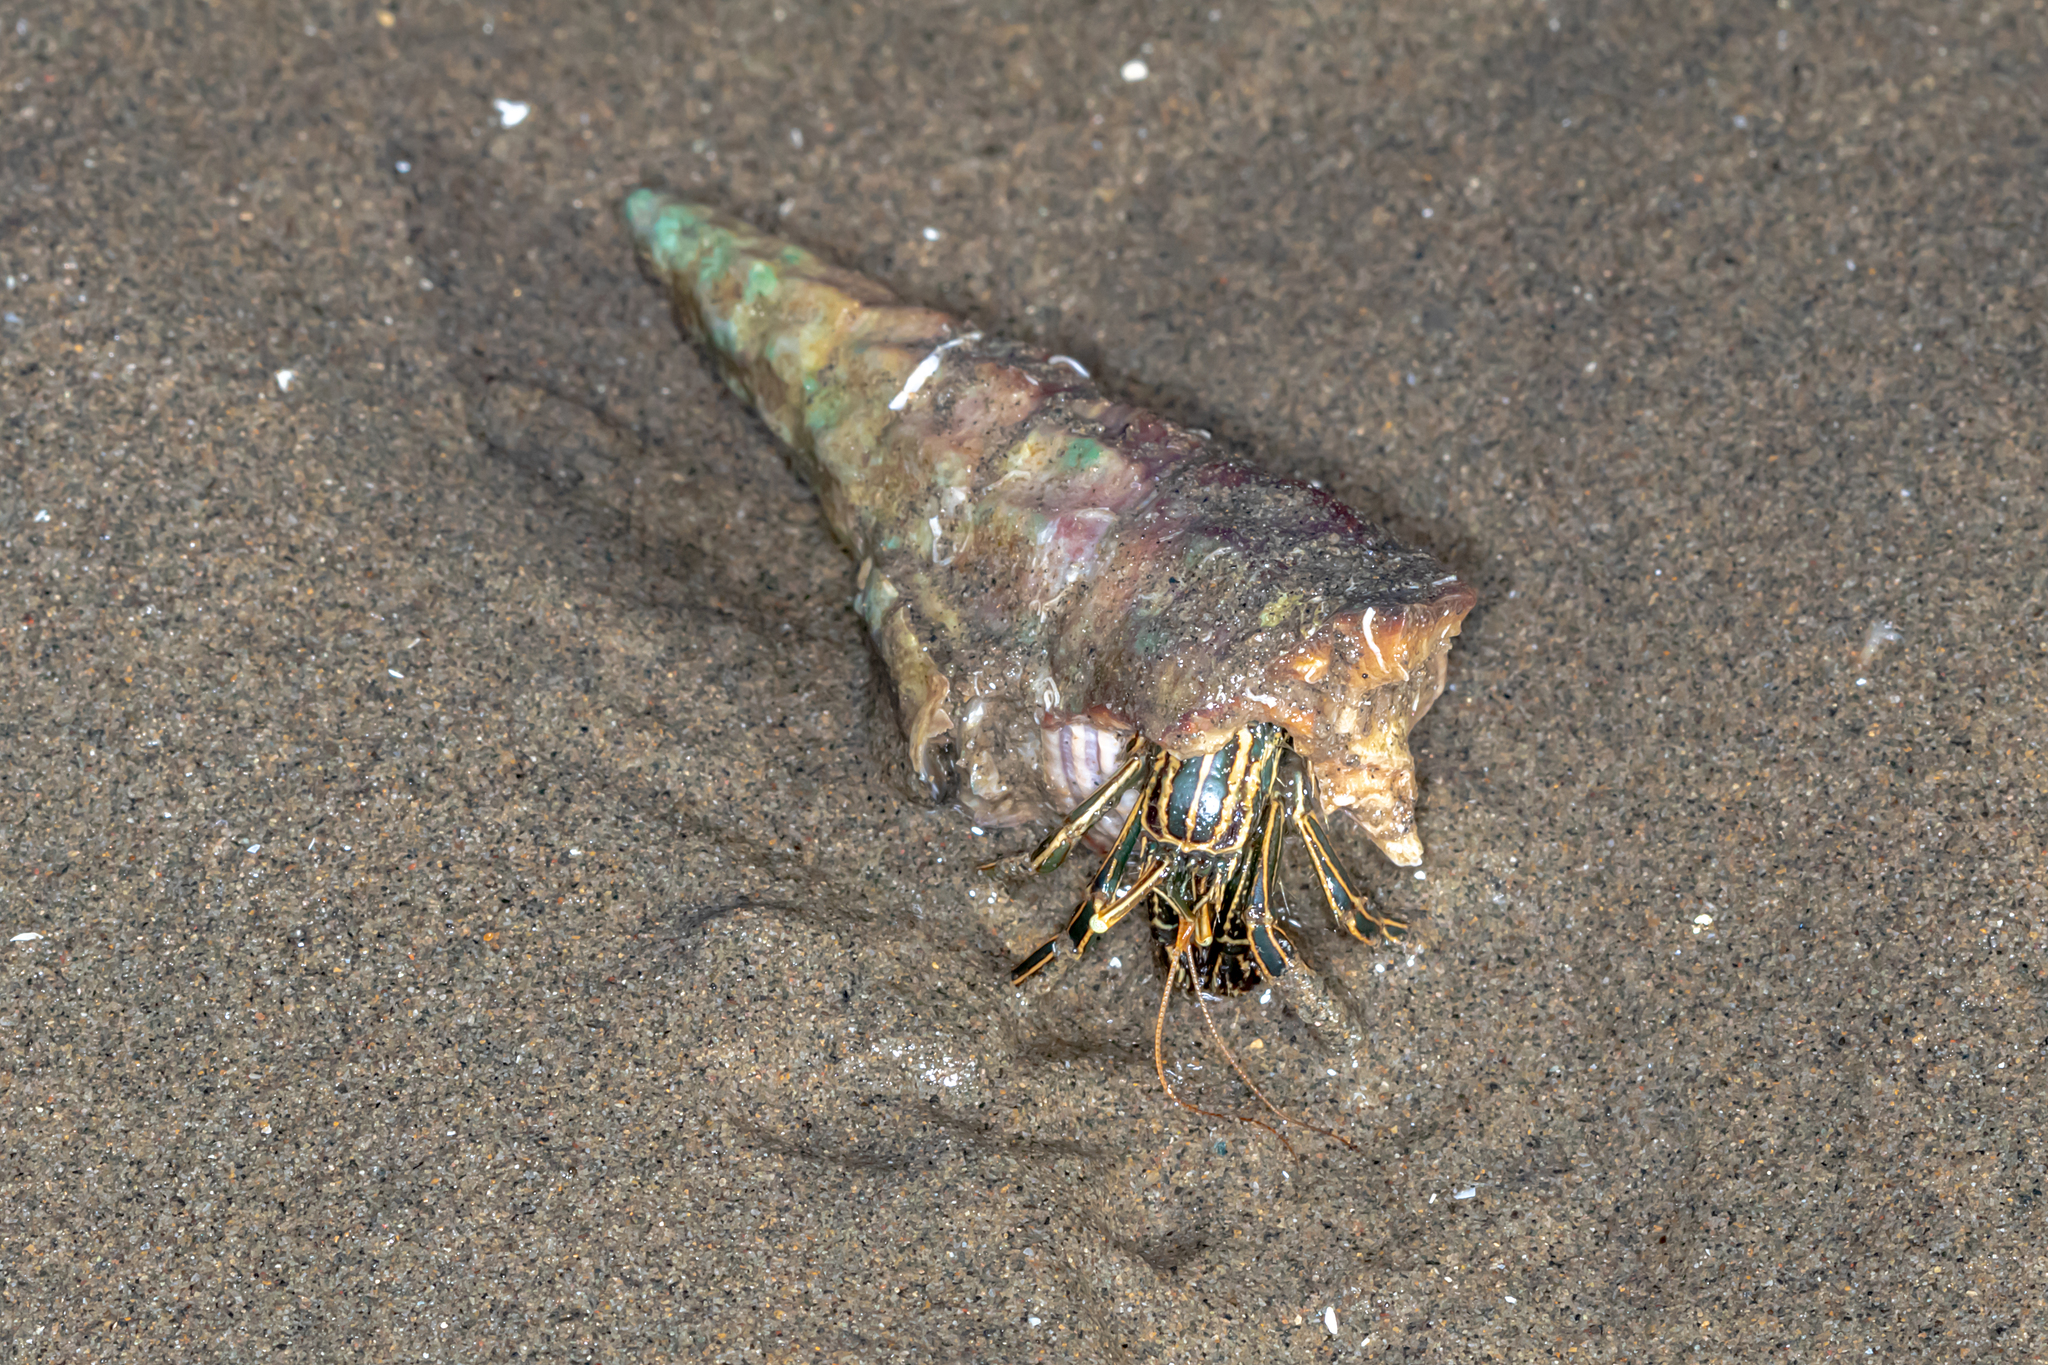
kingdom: Animalia
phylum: Arthropoda
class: Malacostraca
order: Decapoda
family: Diogenidae
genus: Clibanarius
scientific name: Clibanarius taeniatus
